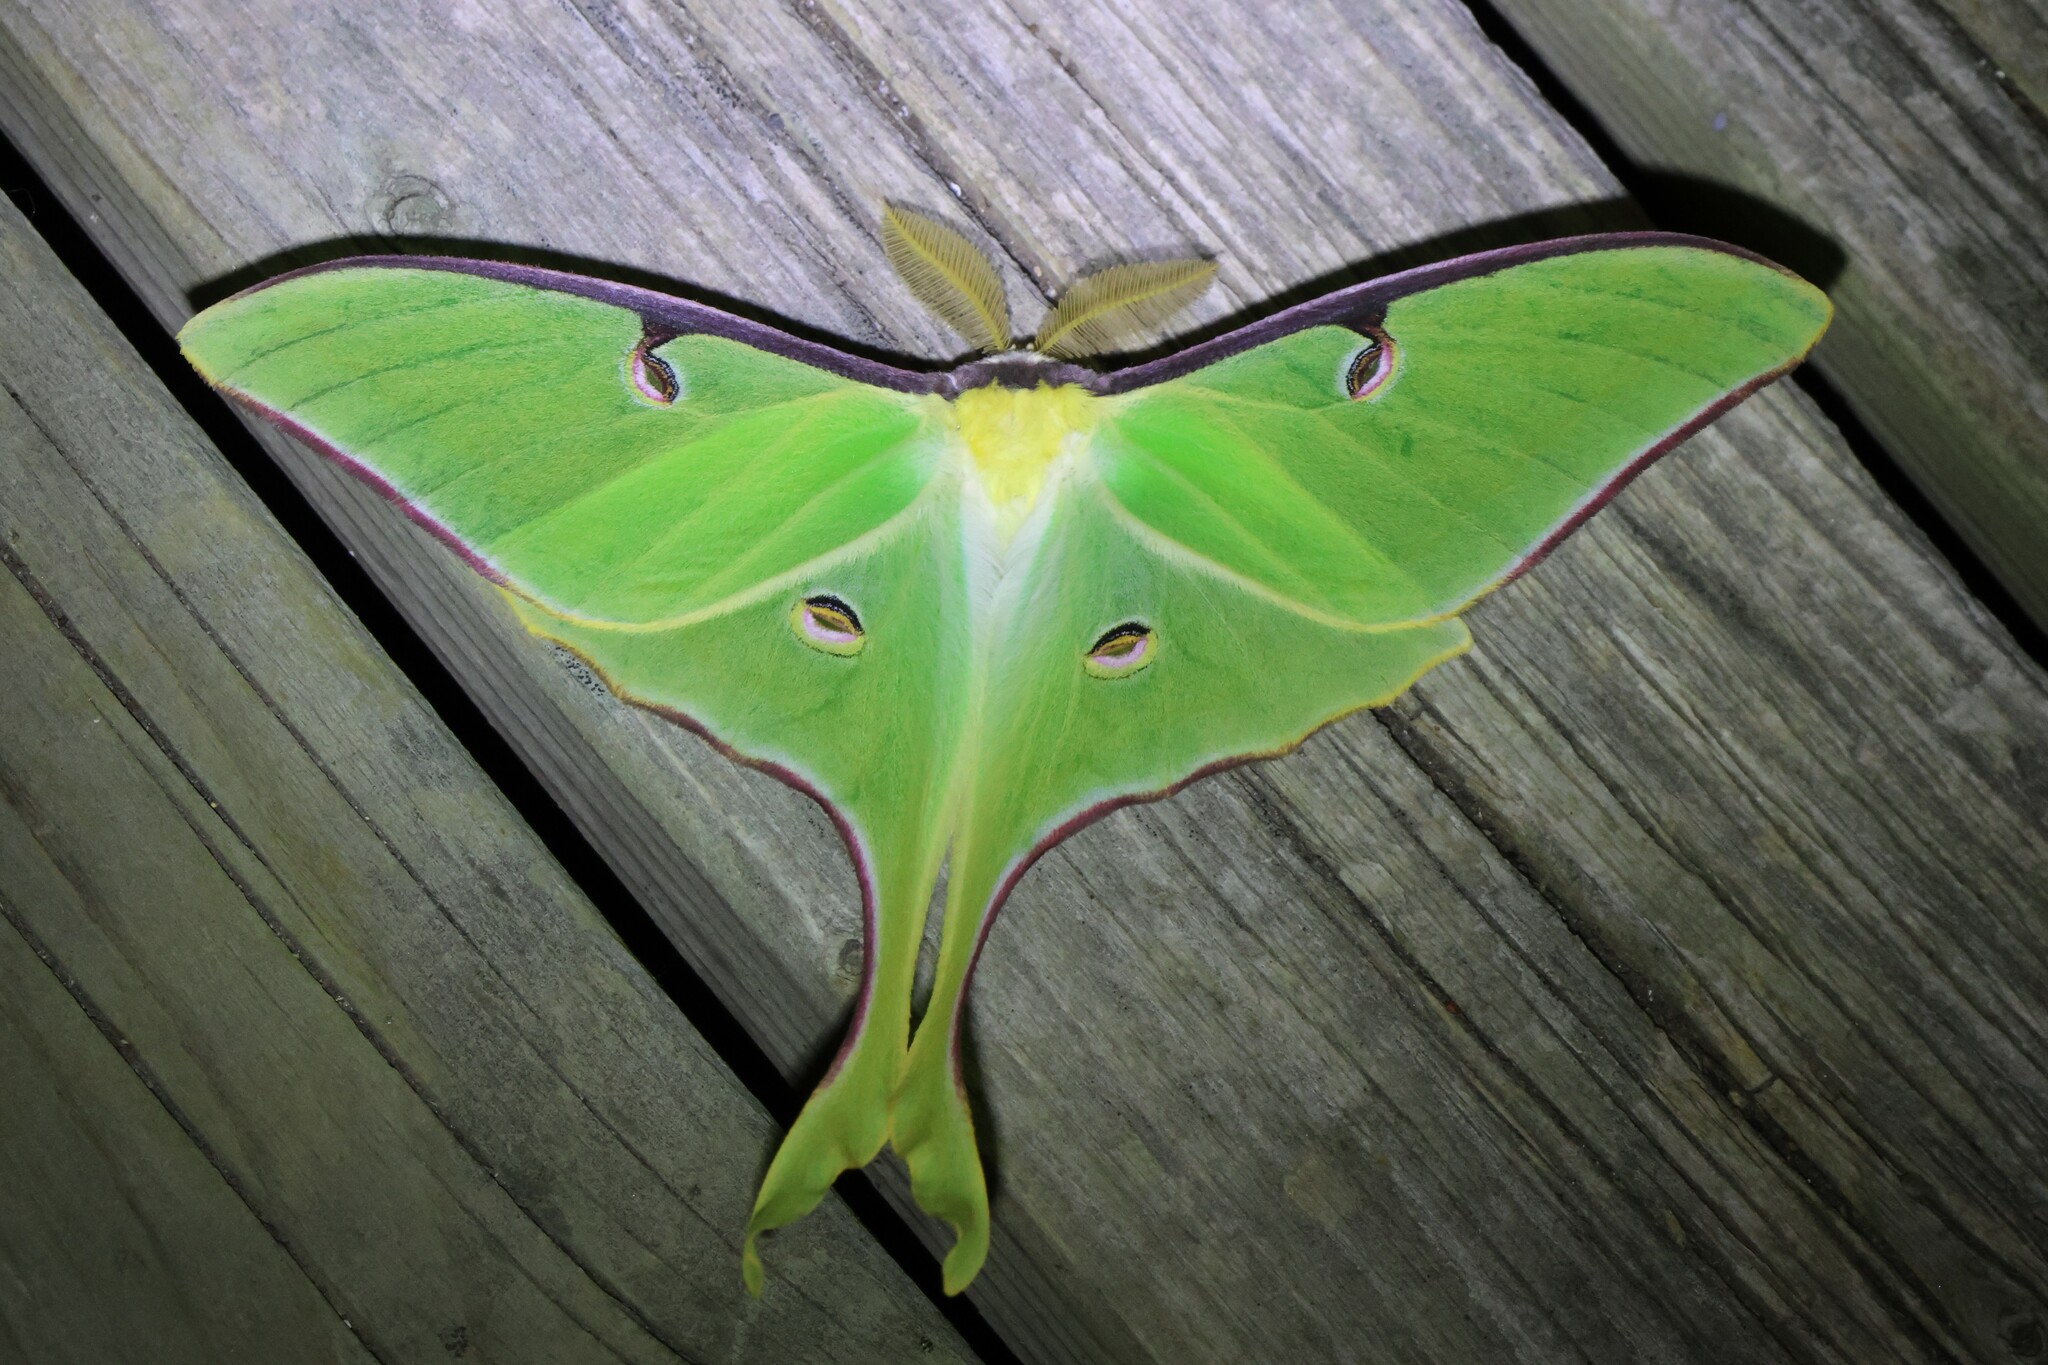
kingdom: Animalia
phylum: Arthropoda
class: Insecta
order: Lepidoptera
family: Saturniidae
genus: Actias
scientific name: Actias luna
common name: Luna moth
